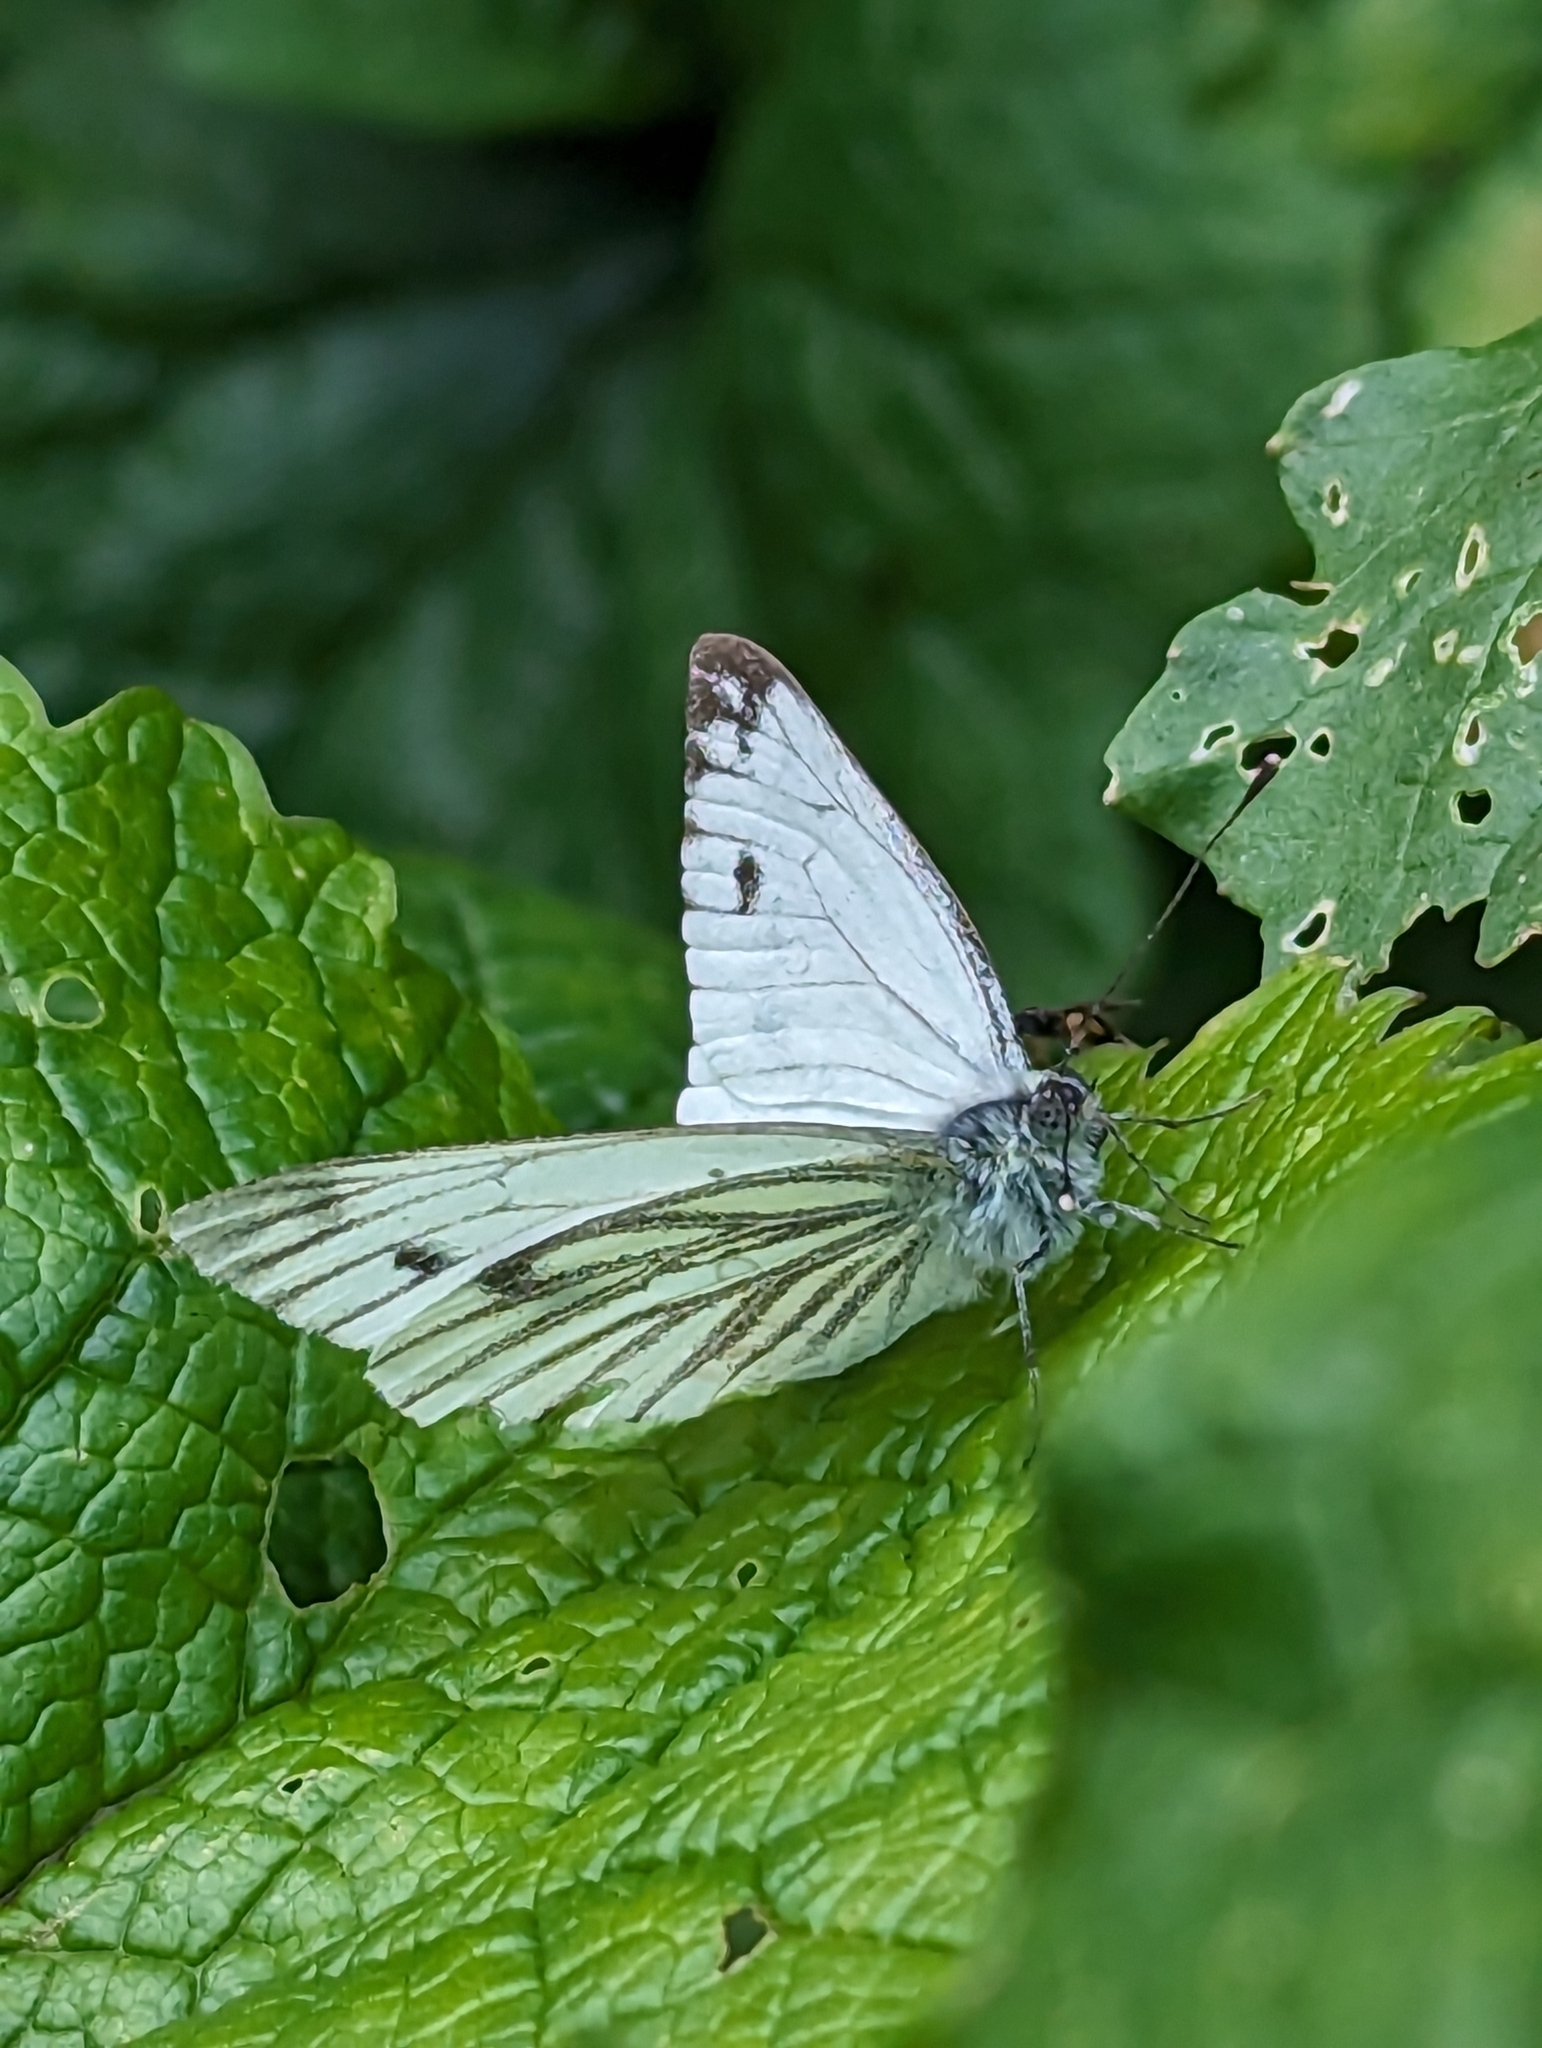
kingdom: Animalia
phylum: Arthropoda
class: Insecta
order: Lepidoptera
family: Pieridae
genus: Pieris
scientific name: Pieris napi
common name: Green-veined white
